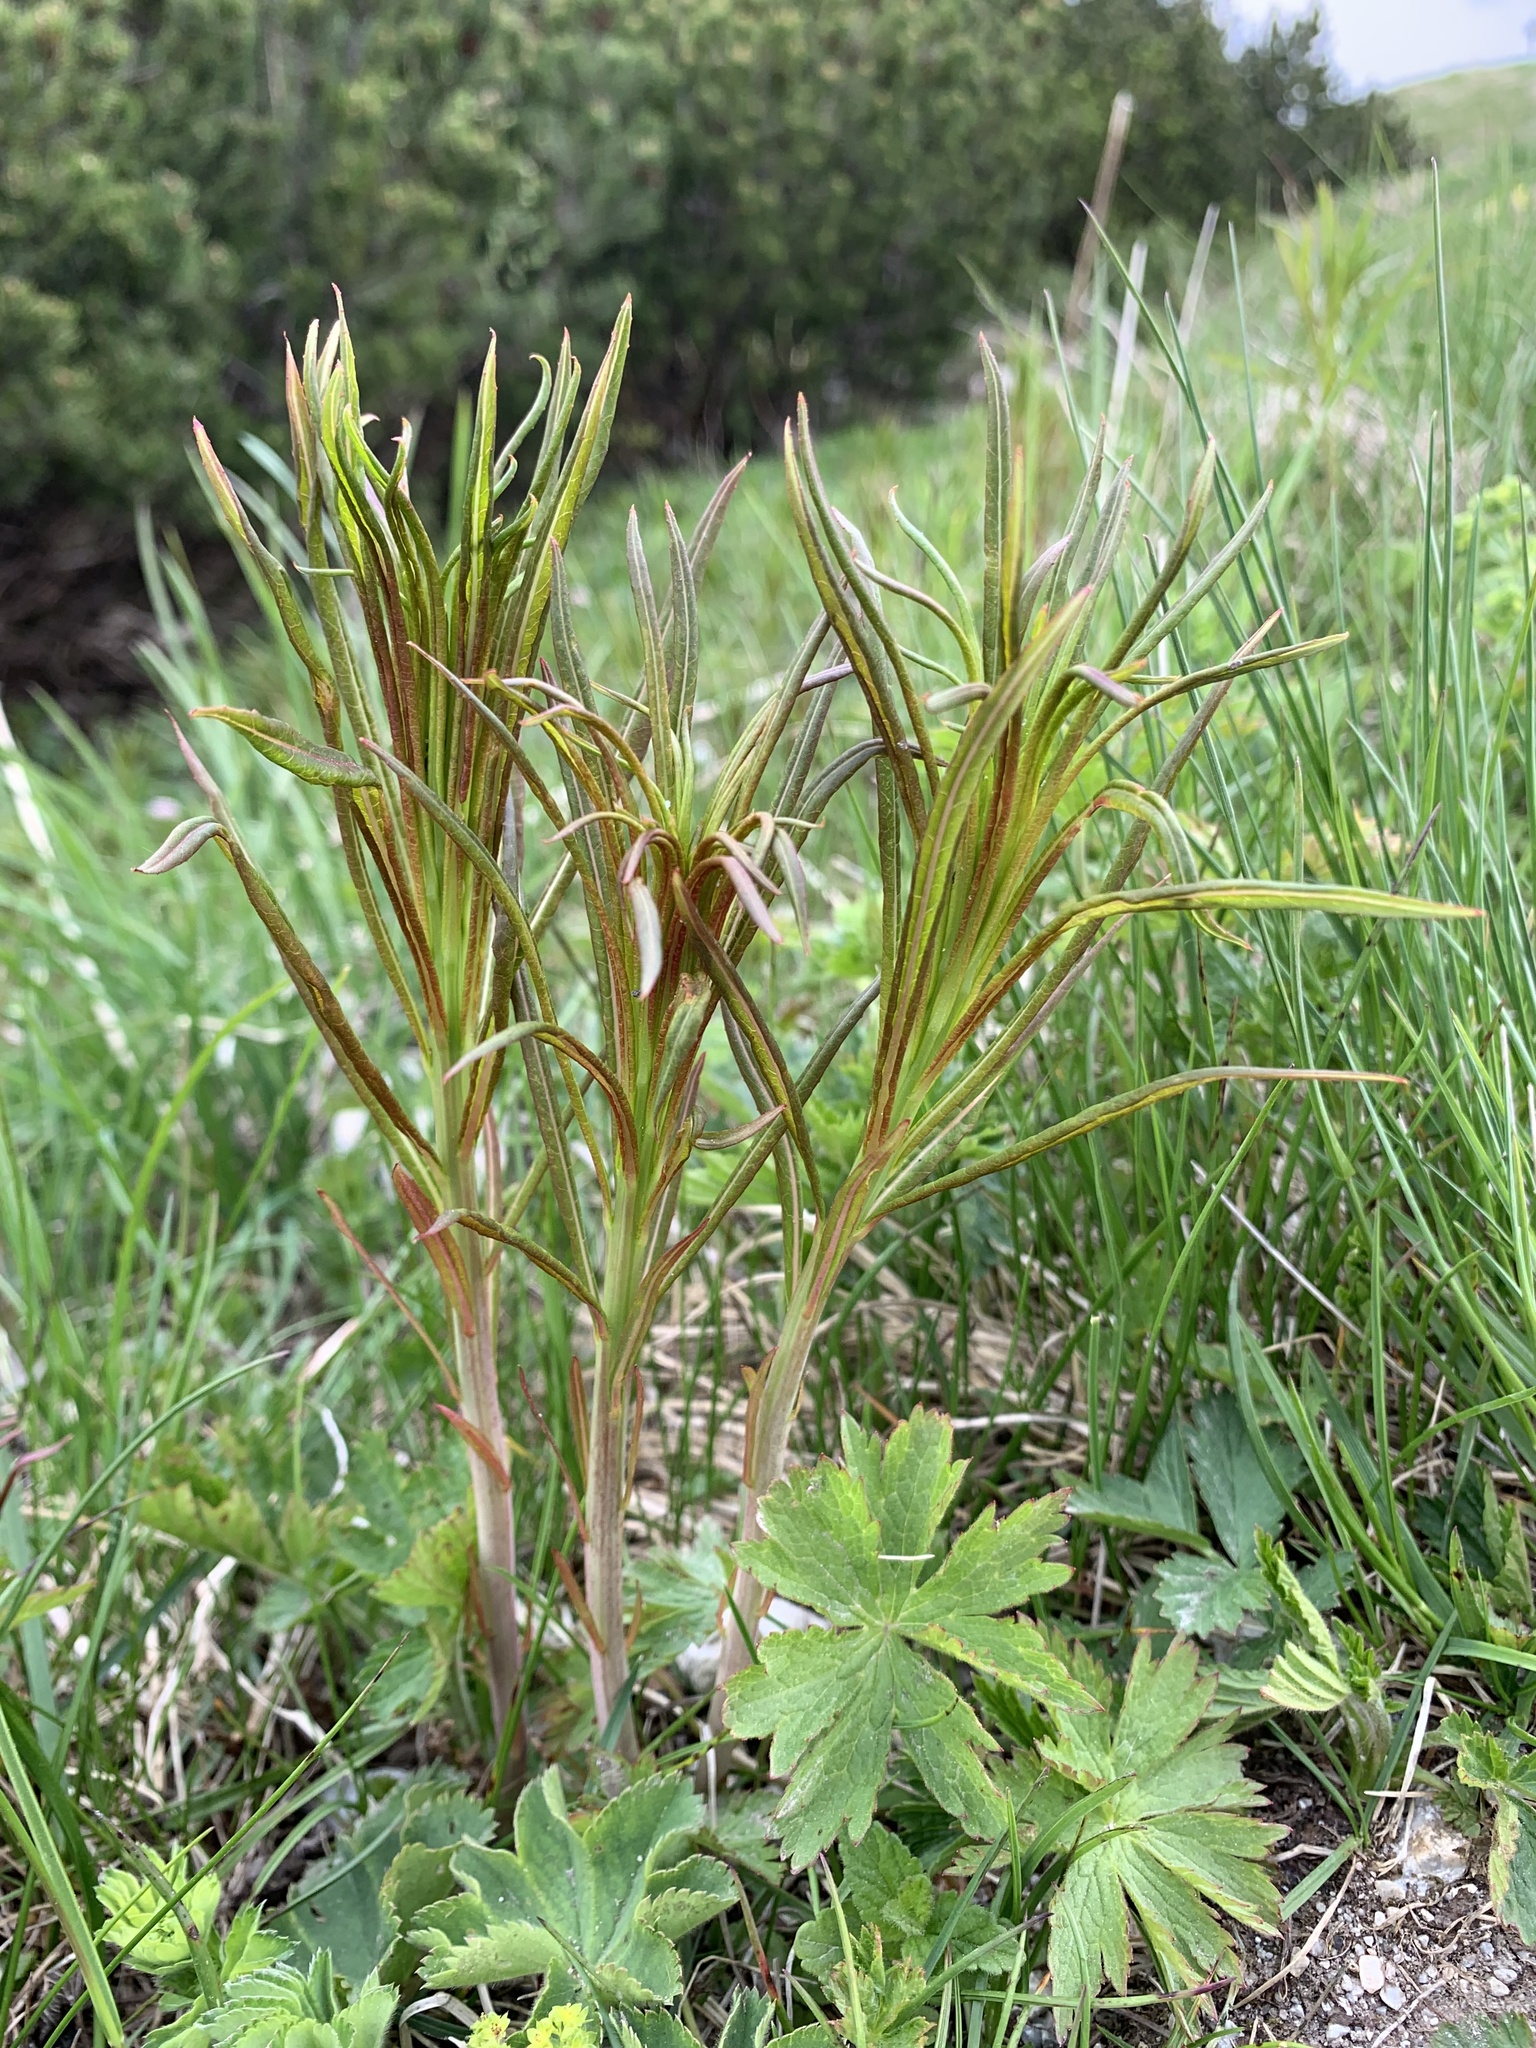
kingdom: Plantae
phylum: Tracheophyta
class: Magnoliopsida
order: Myrtales
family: Onagraceae
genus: Chamaenerion
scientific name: Chamaenerion angustifolium
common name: Fireweed
